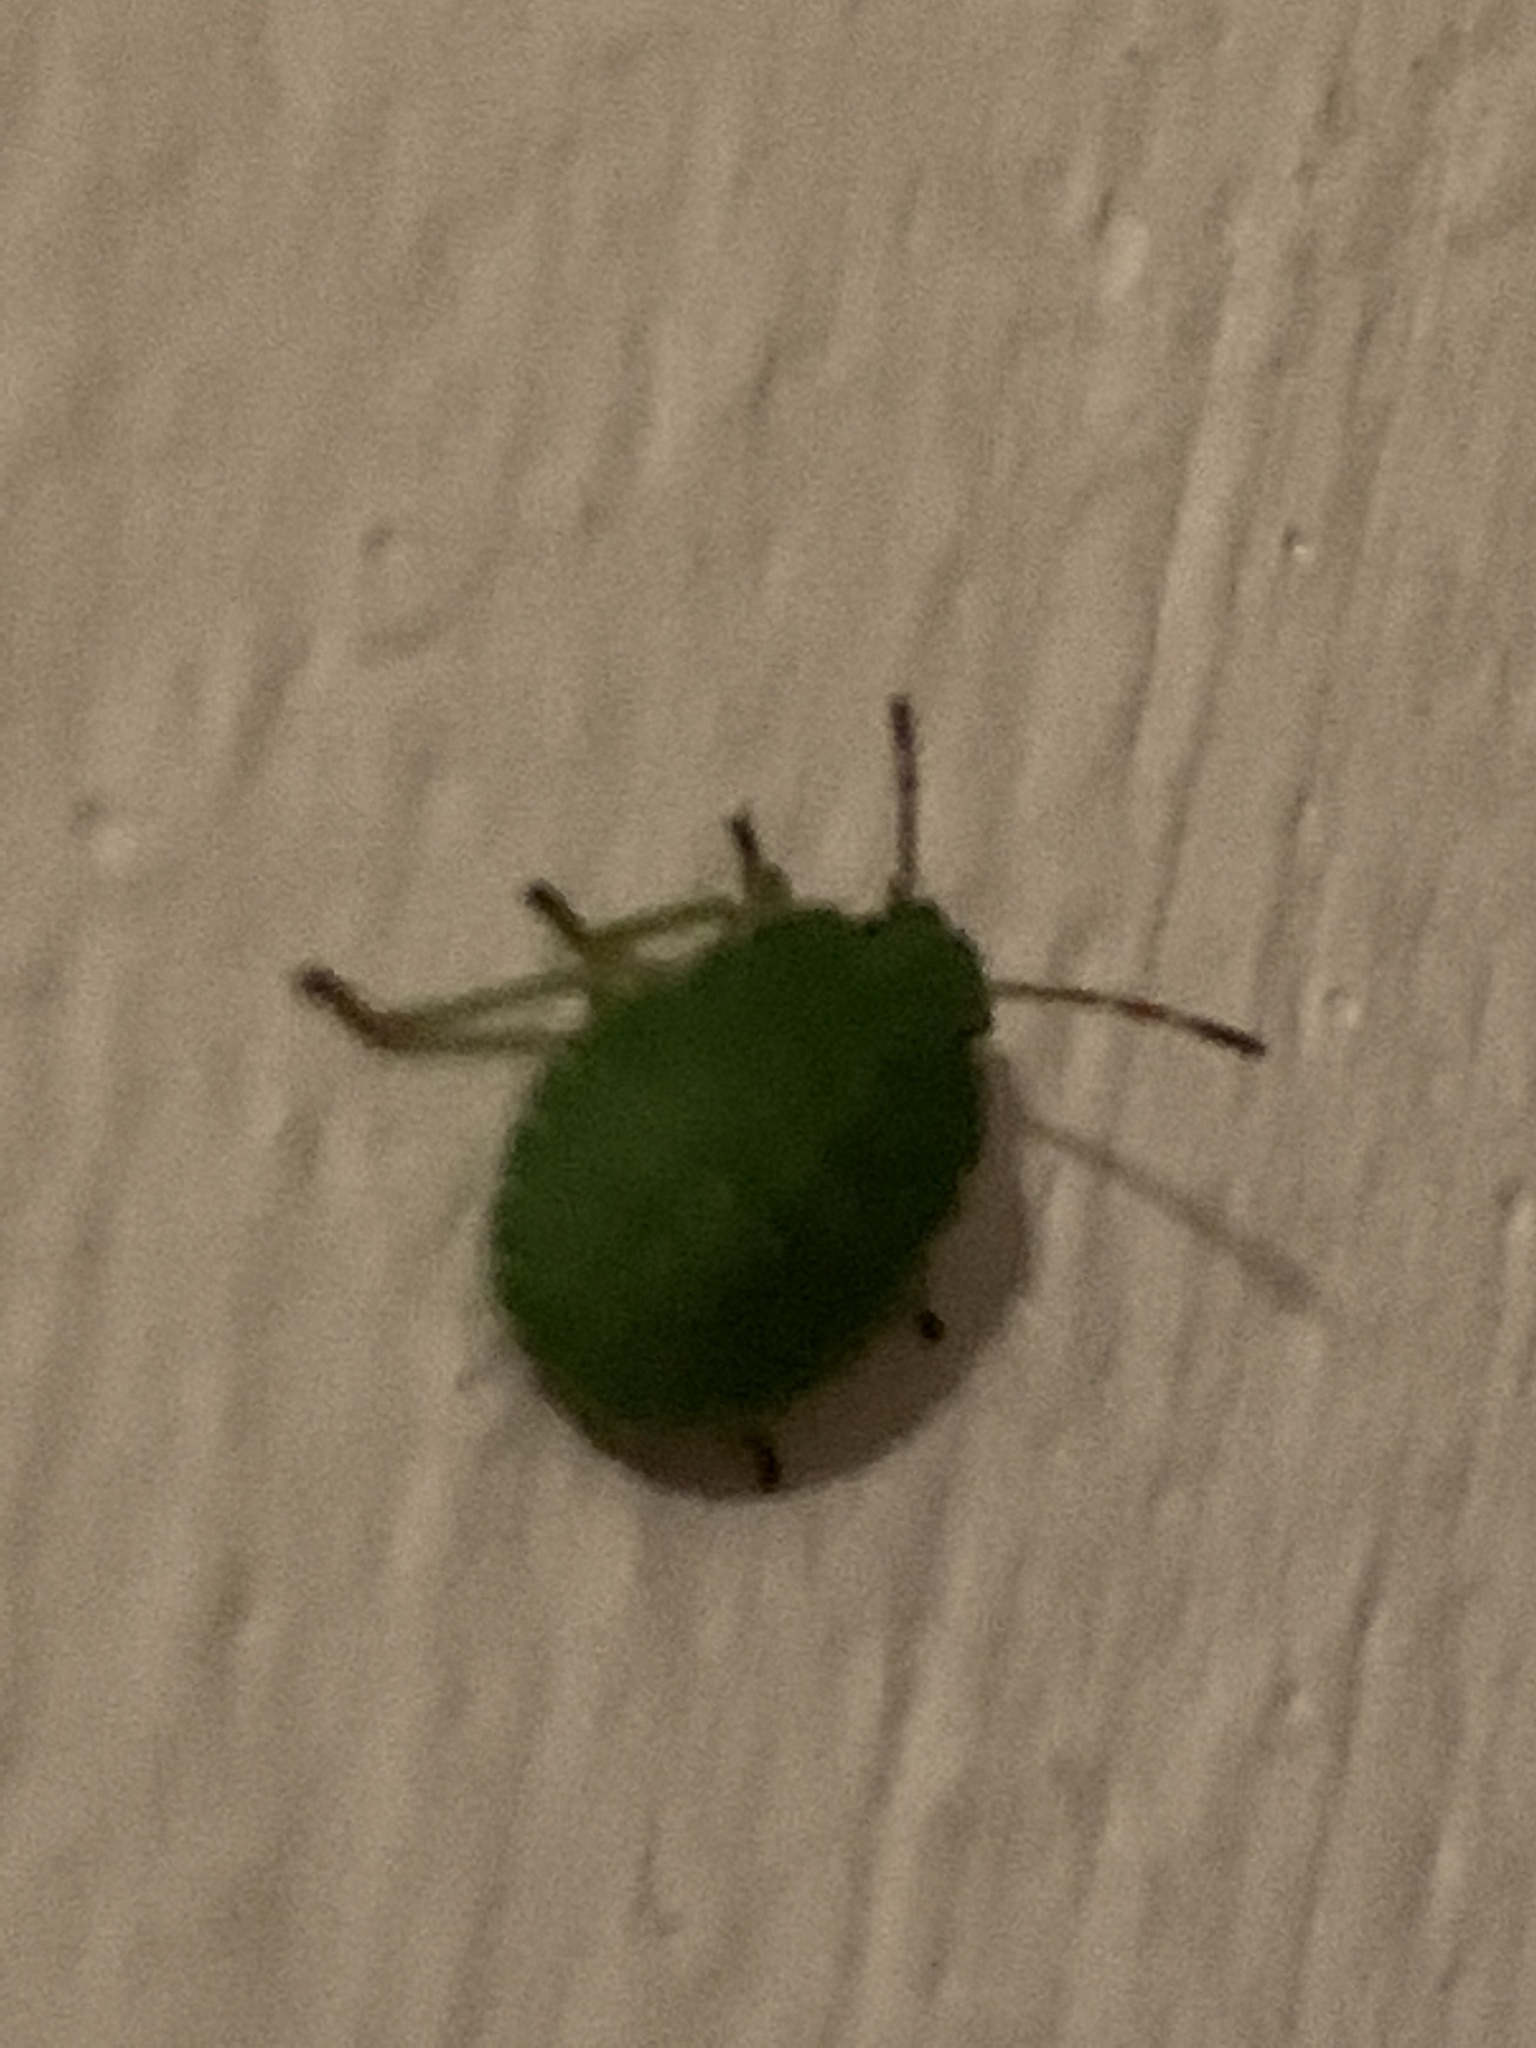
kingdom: Animalia
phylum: Arthropoda
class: Insecta
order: Hemiptera
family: Pentatomidae
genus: Palomena
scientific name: Palomena prasina
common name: Green shieldbug
